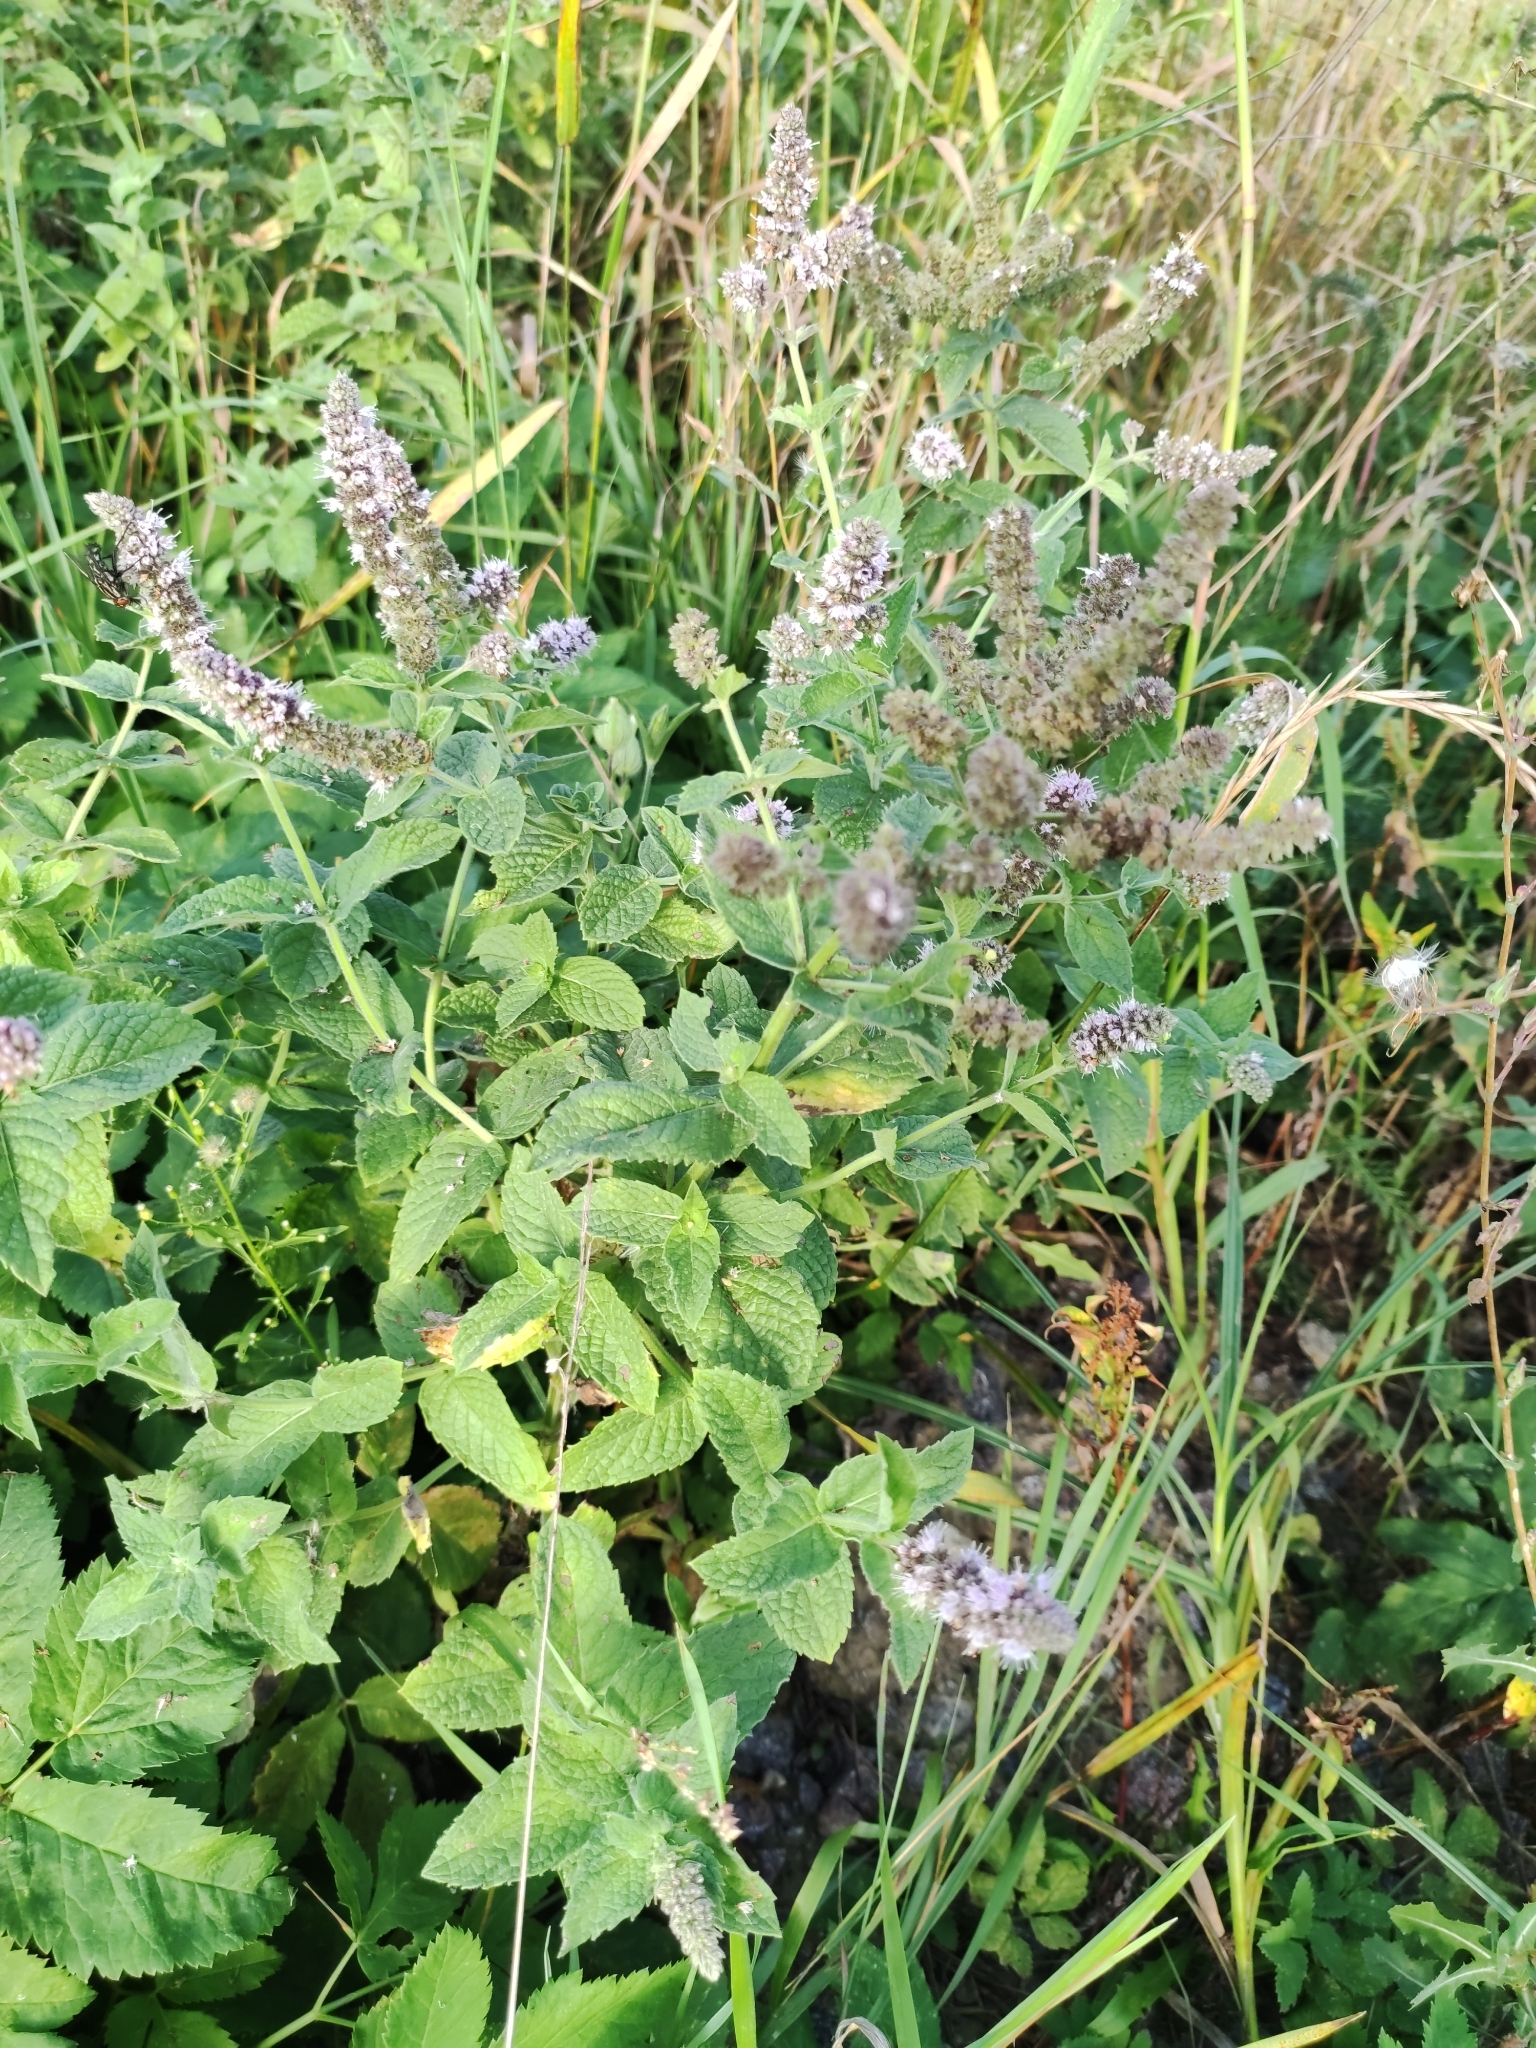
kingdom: Plantae
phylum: Tracheophyta
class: Magnoliopsida
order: Lamiales
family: Lamiaceae
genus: Mentha
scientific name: Mentha longifolia
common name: Horse mint
